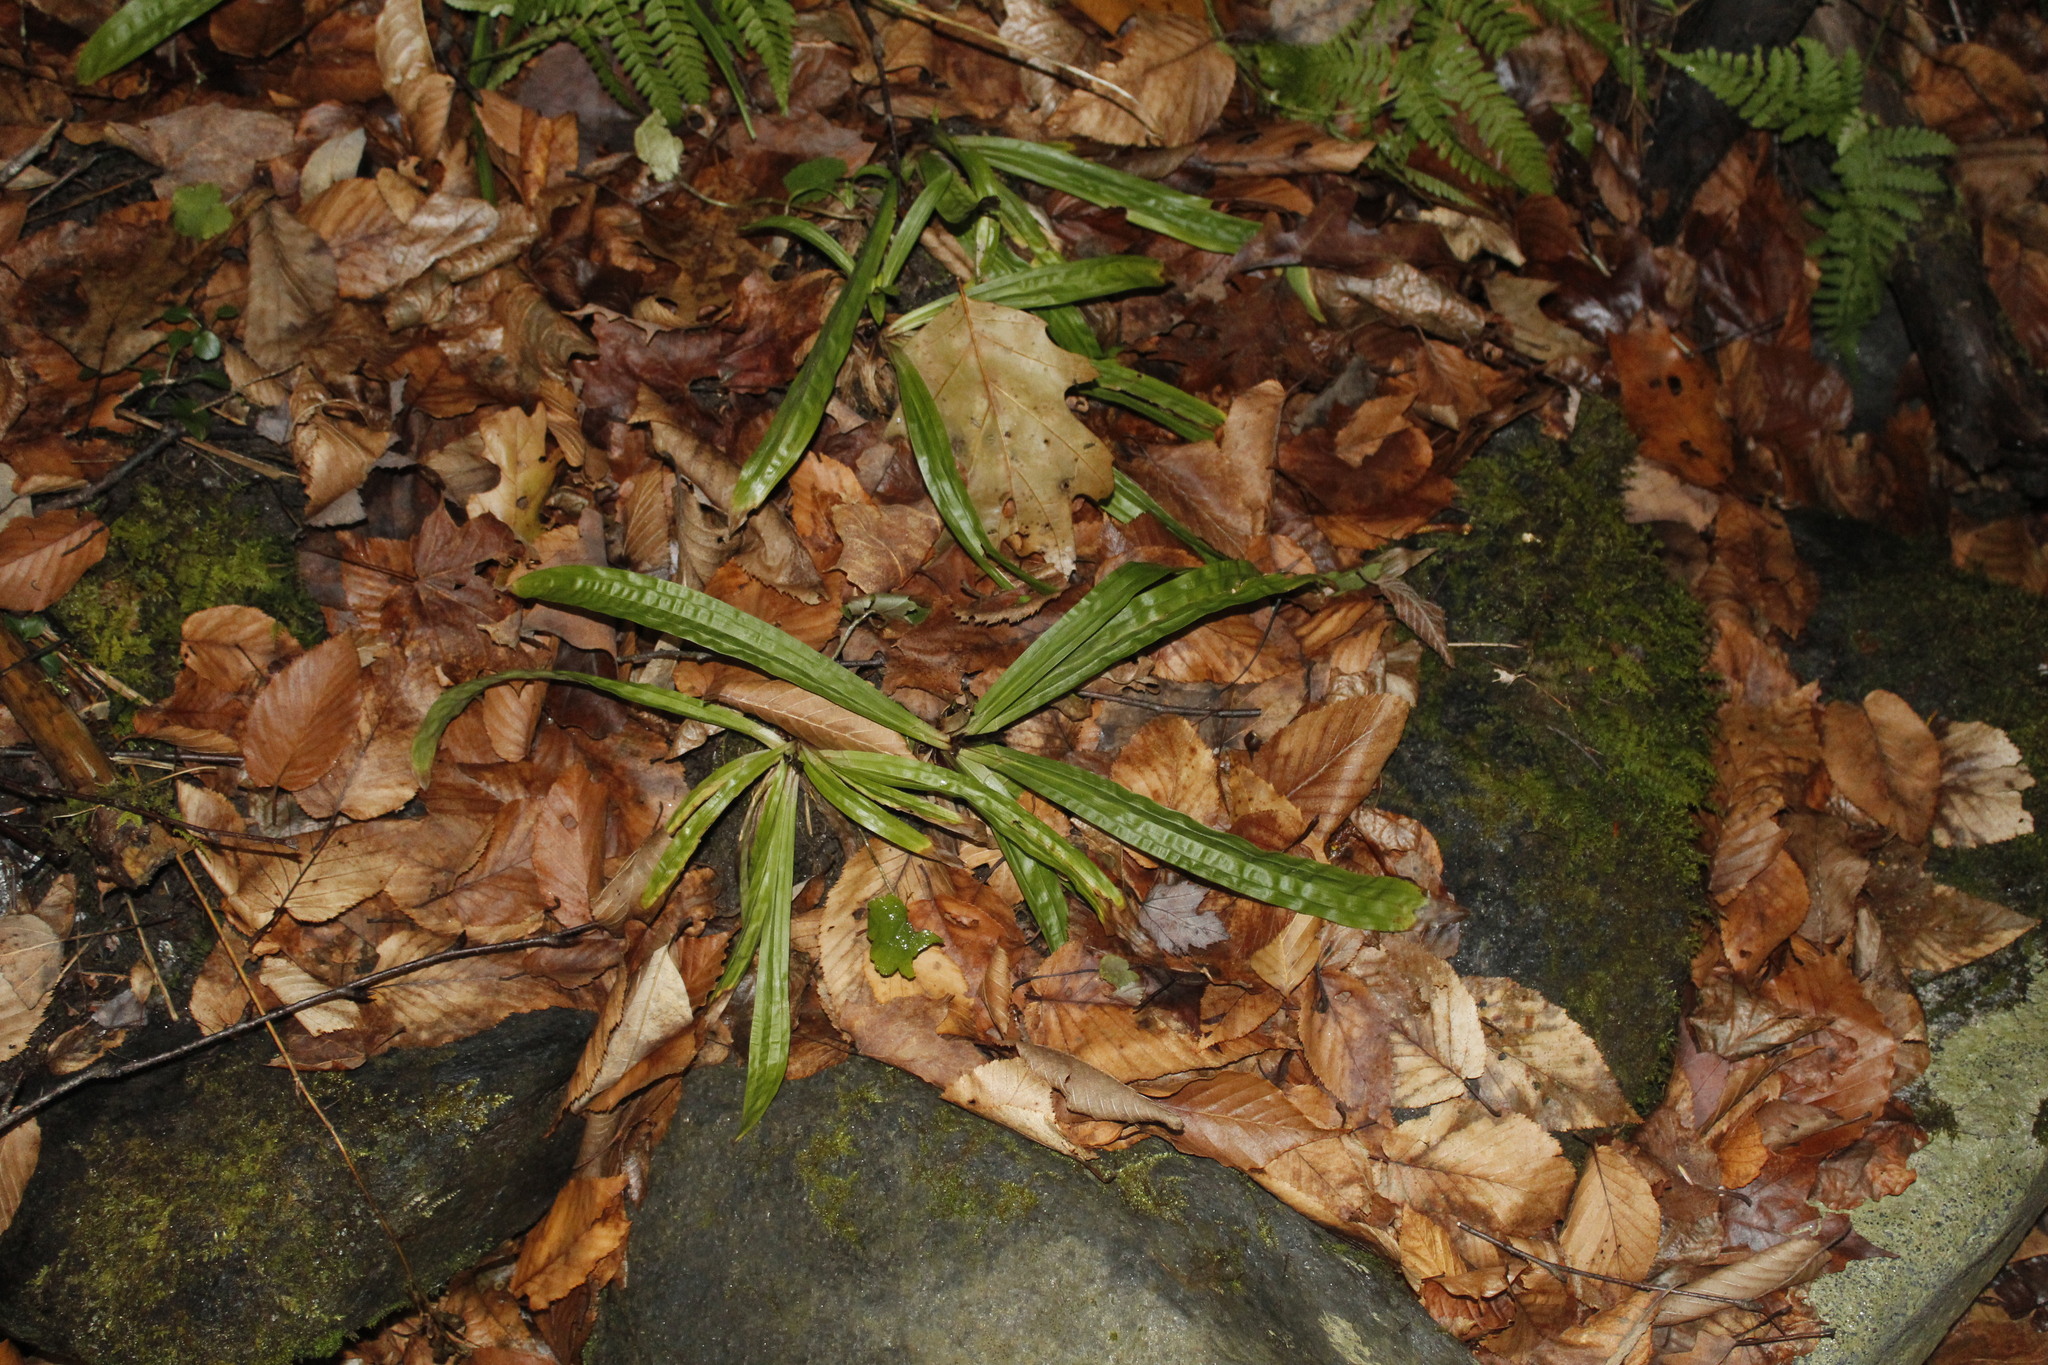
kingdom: Plantae
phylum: Tracheophyta
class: Liliopsida
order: Poales
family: Cyperaceae
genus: Carex
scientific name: Carex plantaginea
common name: Plantain-leaved sedge
